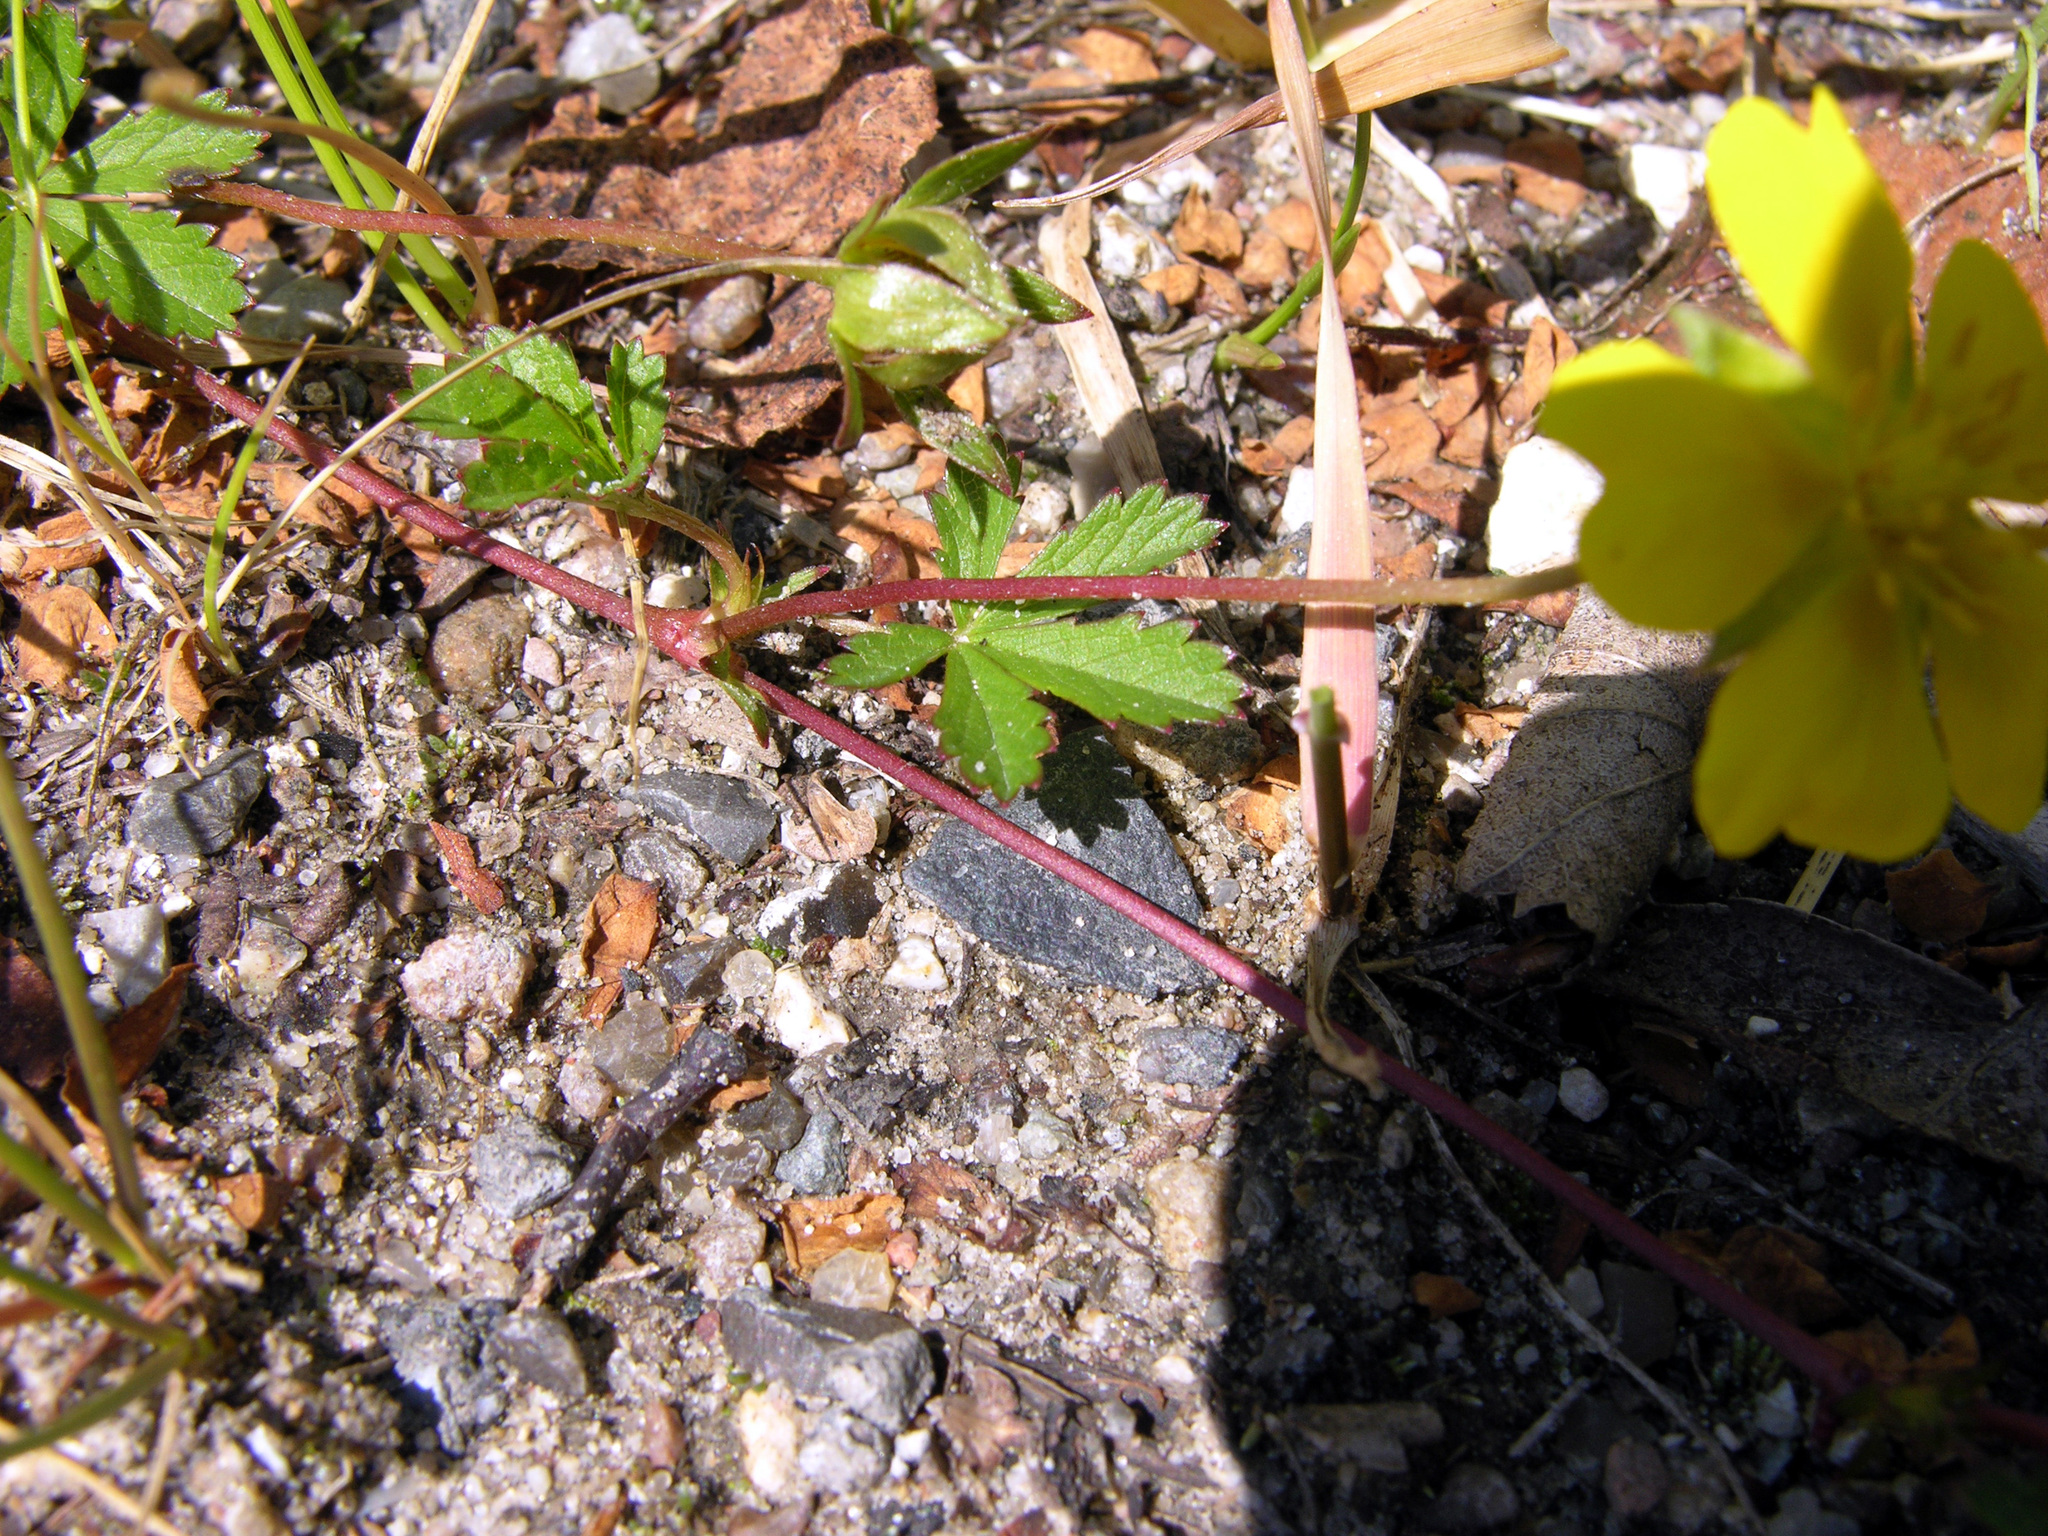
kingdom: Plantae
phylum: Tracheophyta
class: Magnoliopsida
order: Rosales
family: Rosaceae
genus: Potentilla
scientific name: Potentilla reptans
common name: Creeping cinquefoil
